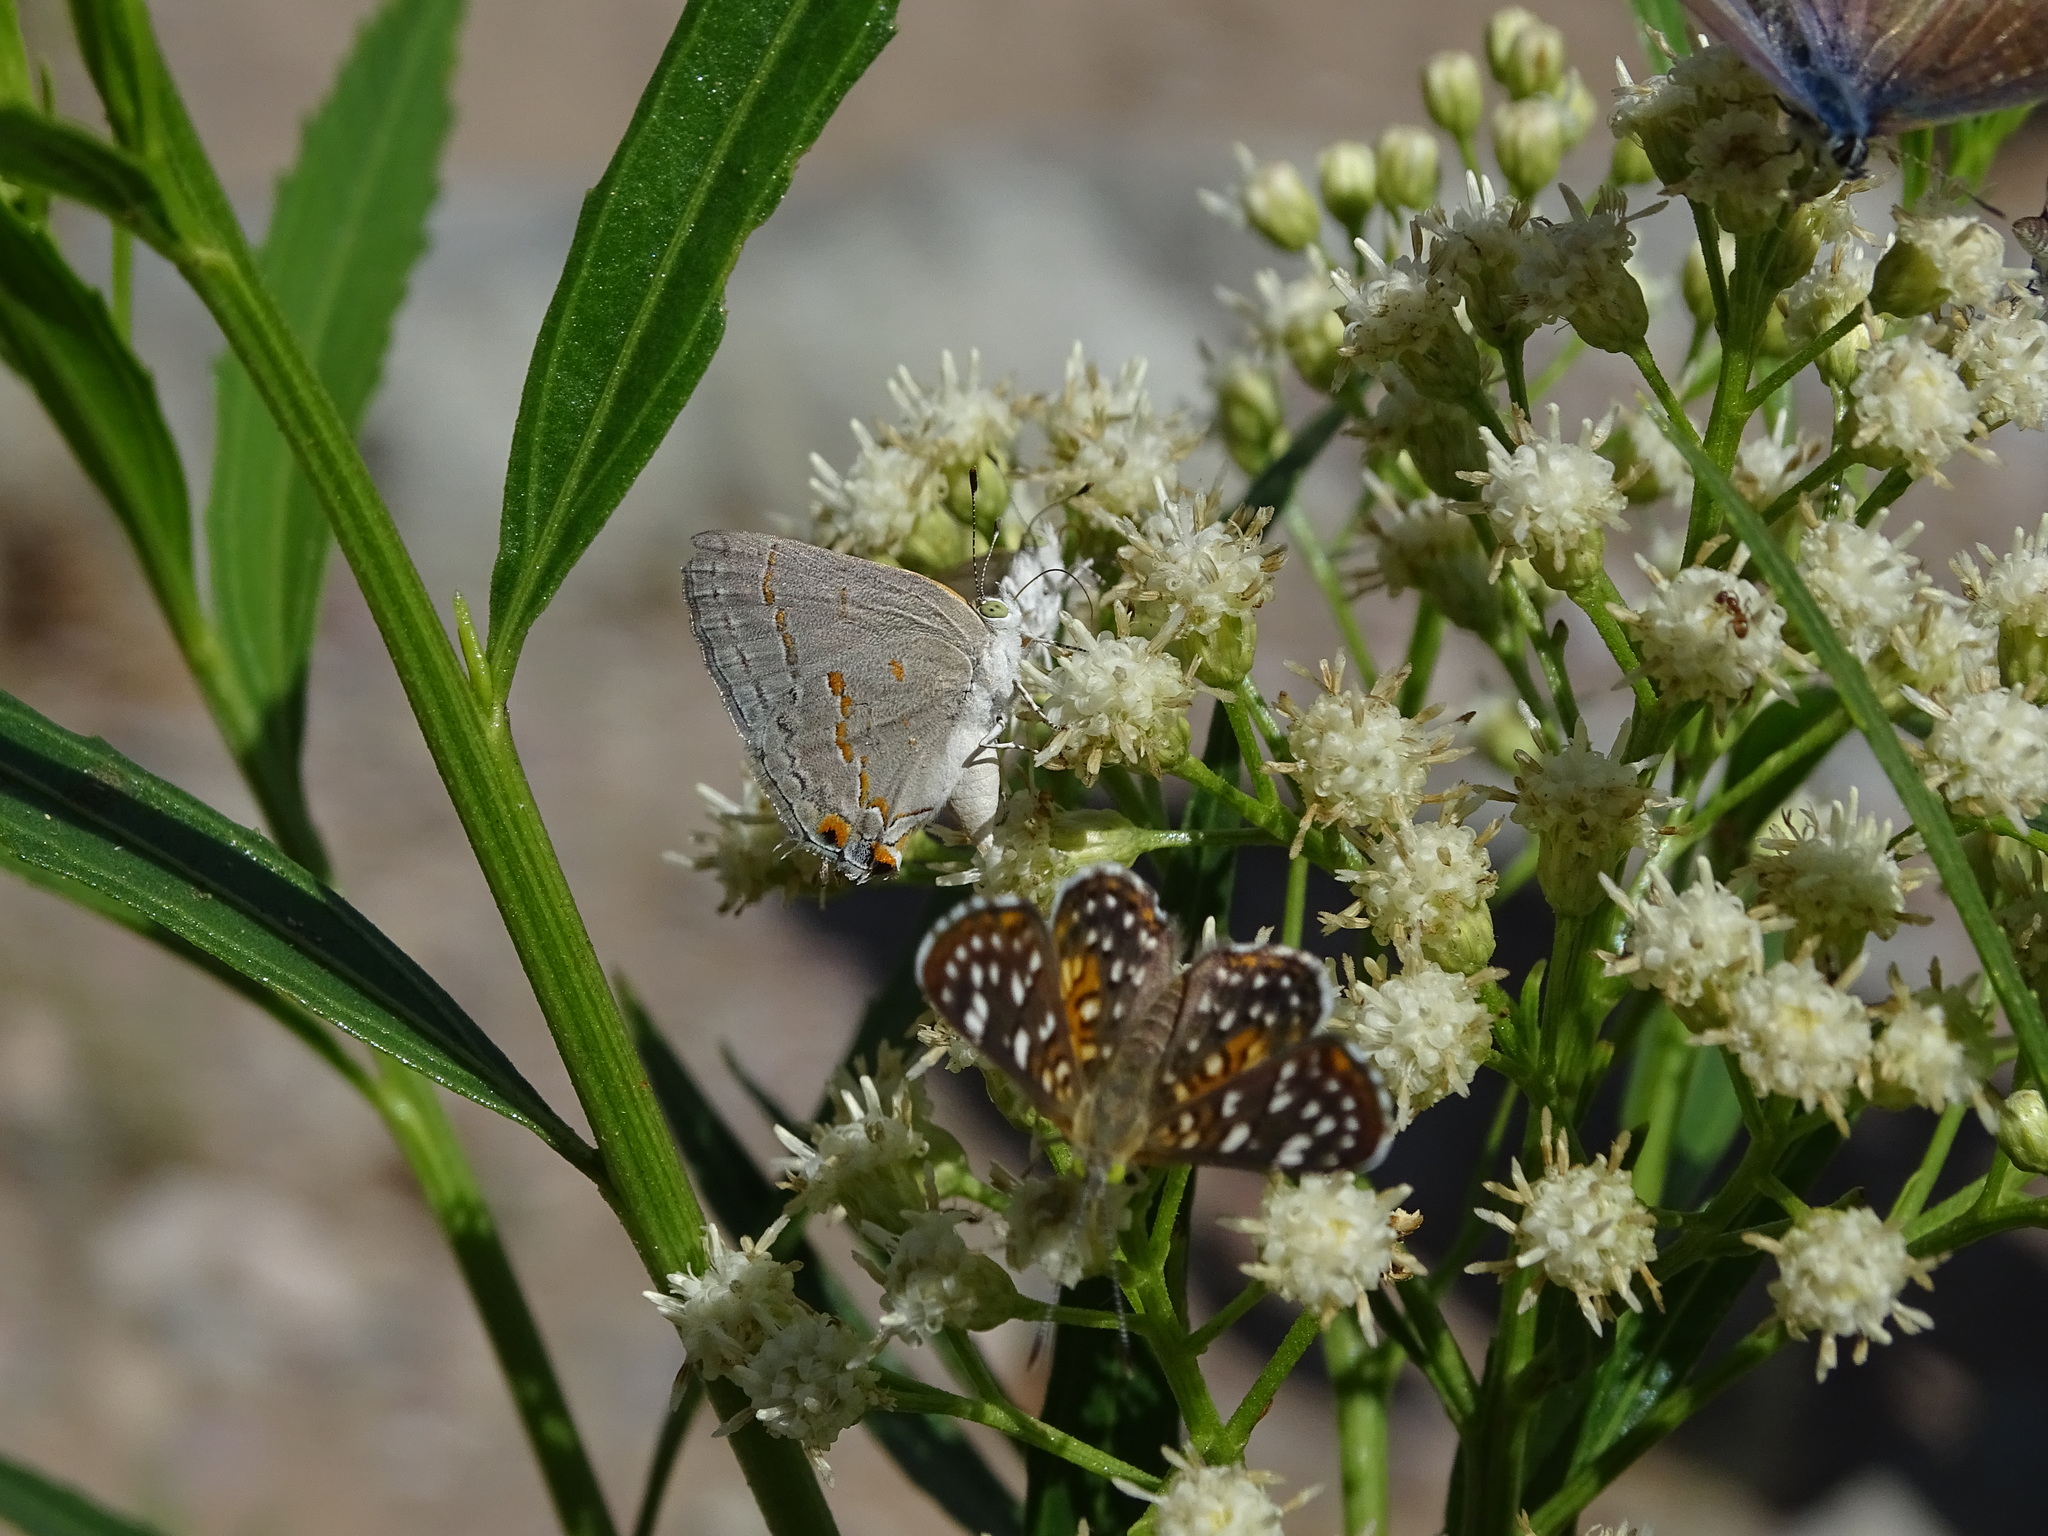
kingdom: Animalia
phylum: Arthropoda
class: Insecta
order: Lepidoptera
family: Riodinidae
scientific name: Riodinidae
